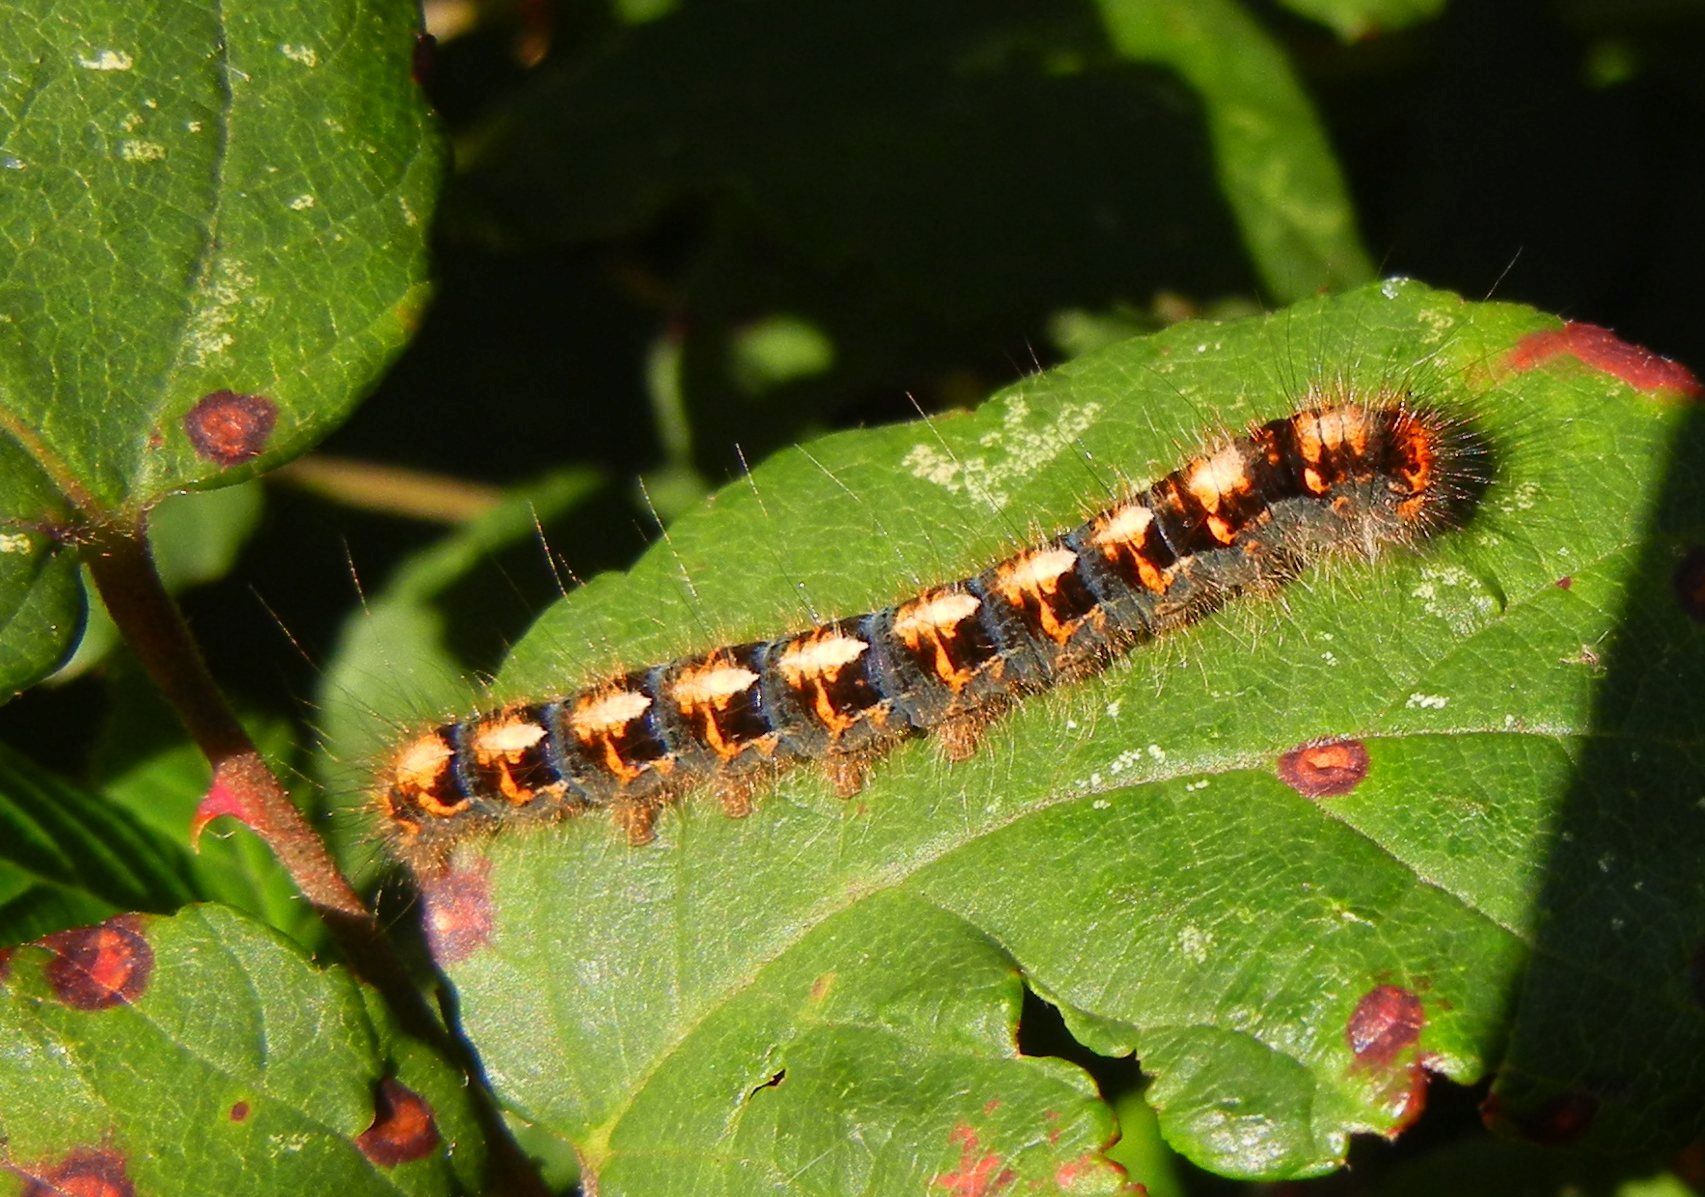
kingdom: Animalia
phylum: Arthropoda
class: Insecta
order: Lepidoptera
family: Lasiocampidae
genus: Lasiocampa
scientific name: Lasiocampa quercus
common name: Oak eggar
